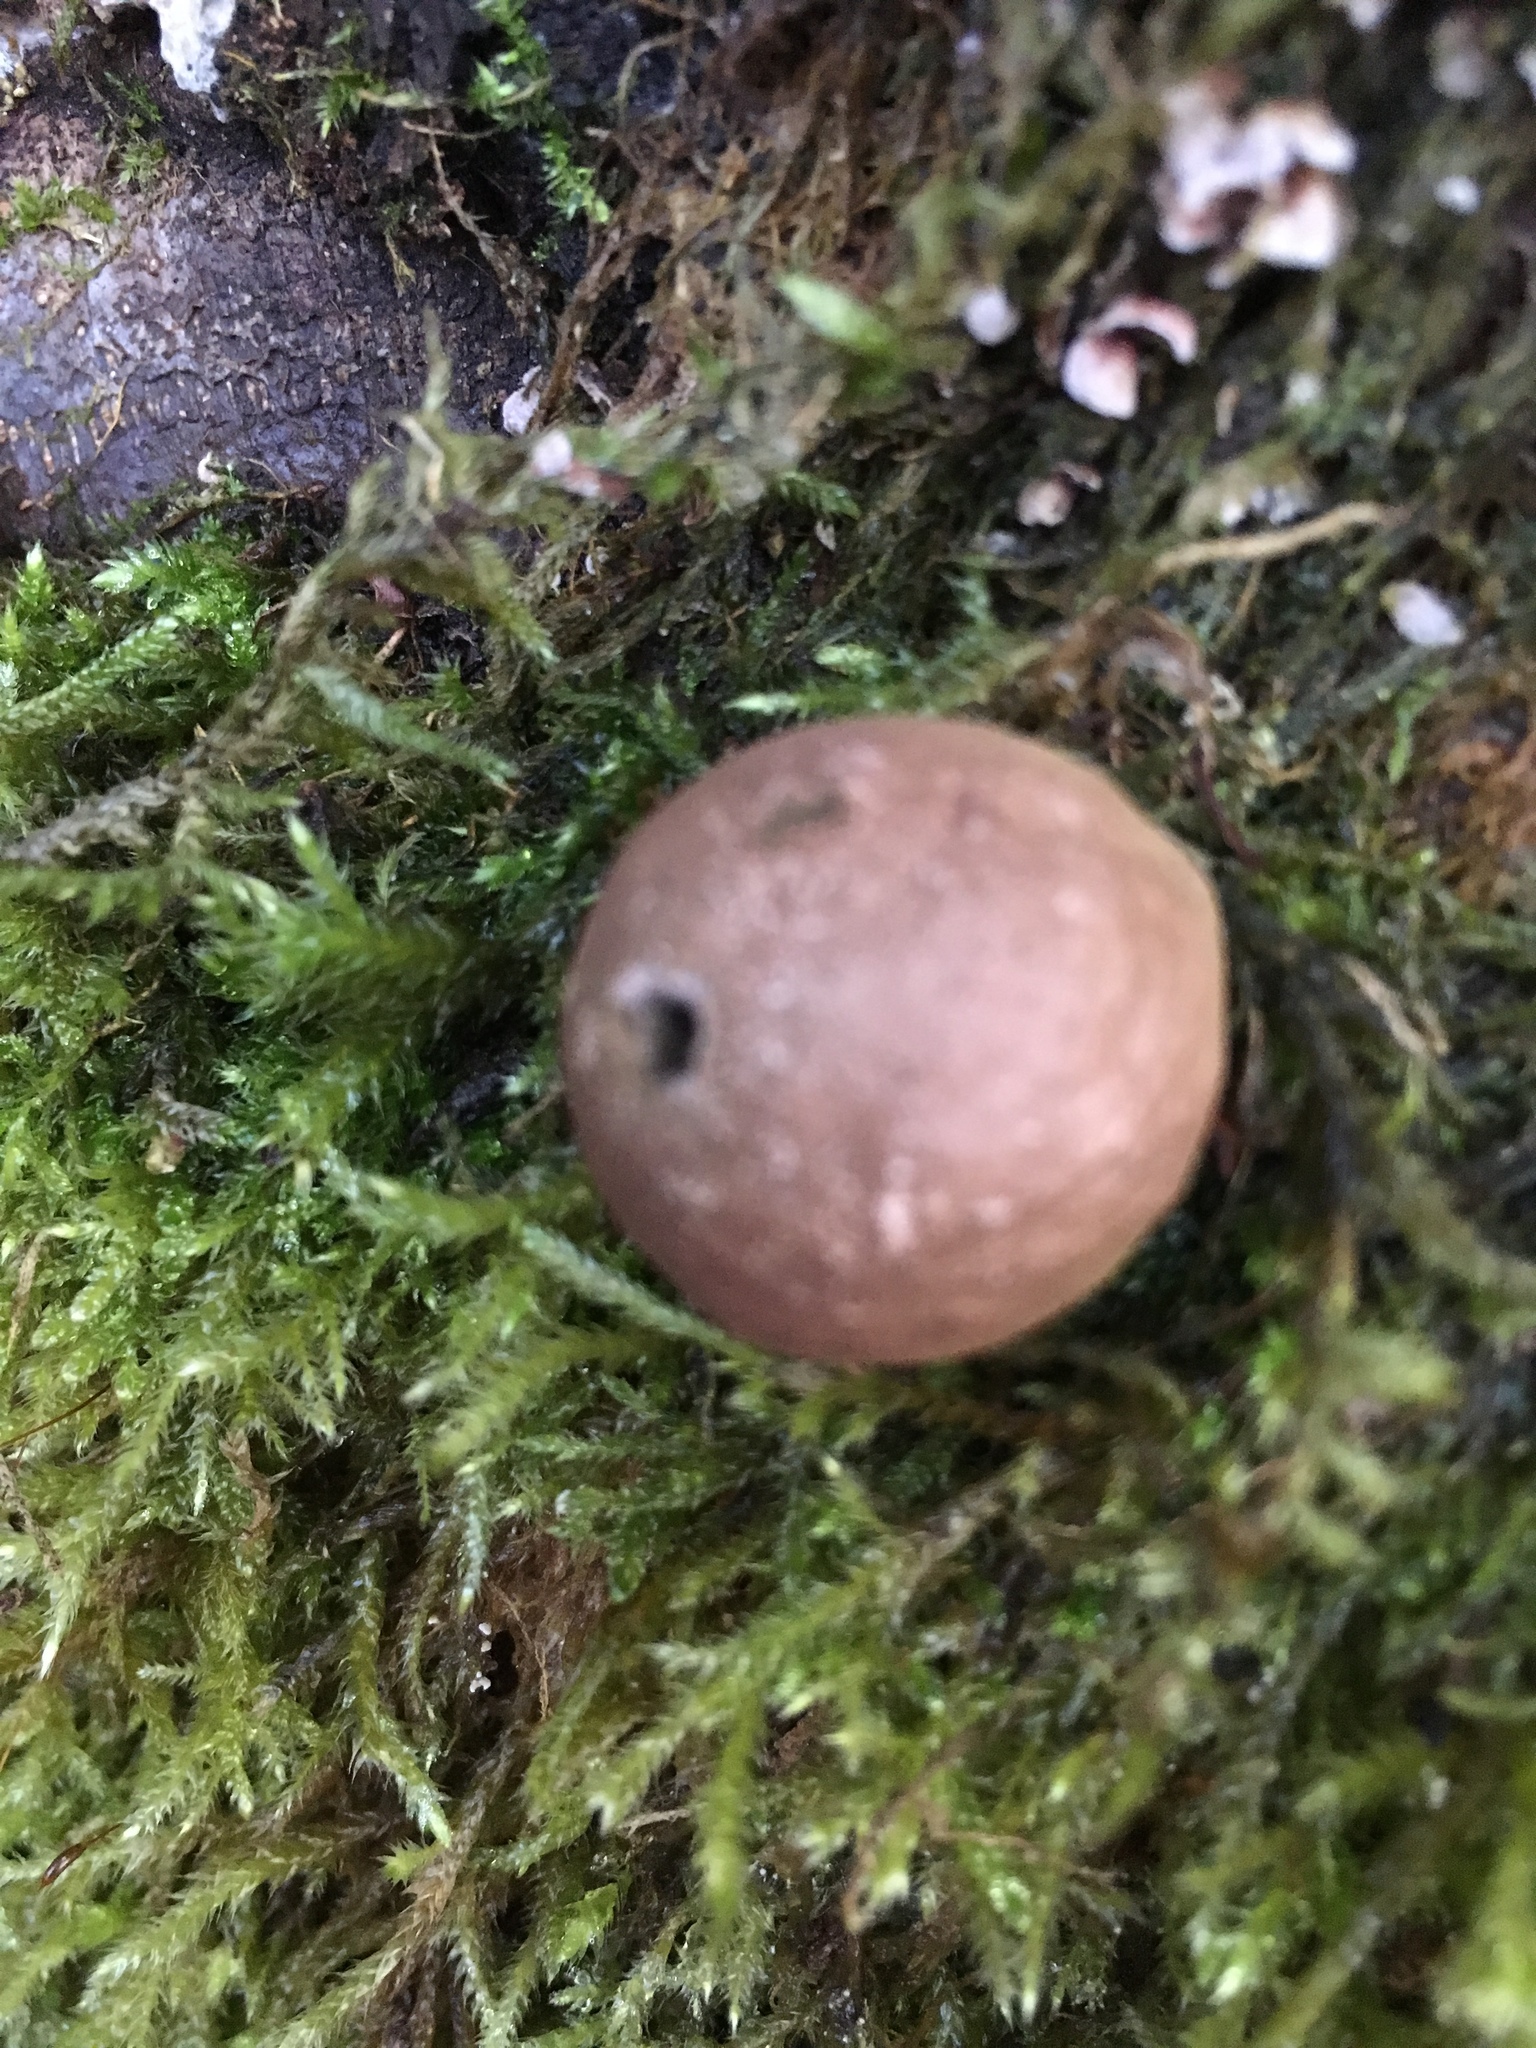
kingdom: Fungi
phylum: Basidiomycota
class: Agaricomycetes
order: Agaricales
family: Lycoperdaceae
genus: Apioperdon
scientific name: Apioperdon pyriforme
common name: Pear-shaped puffball
